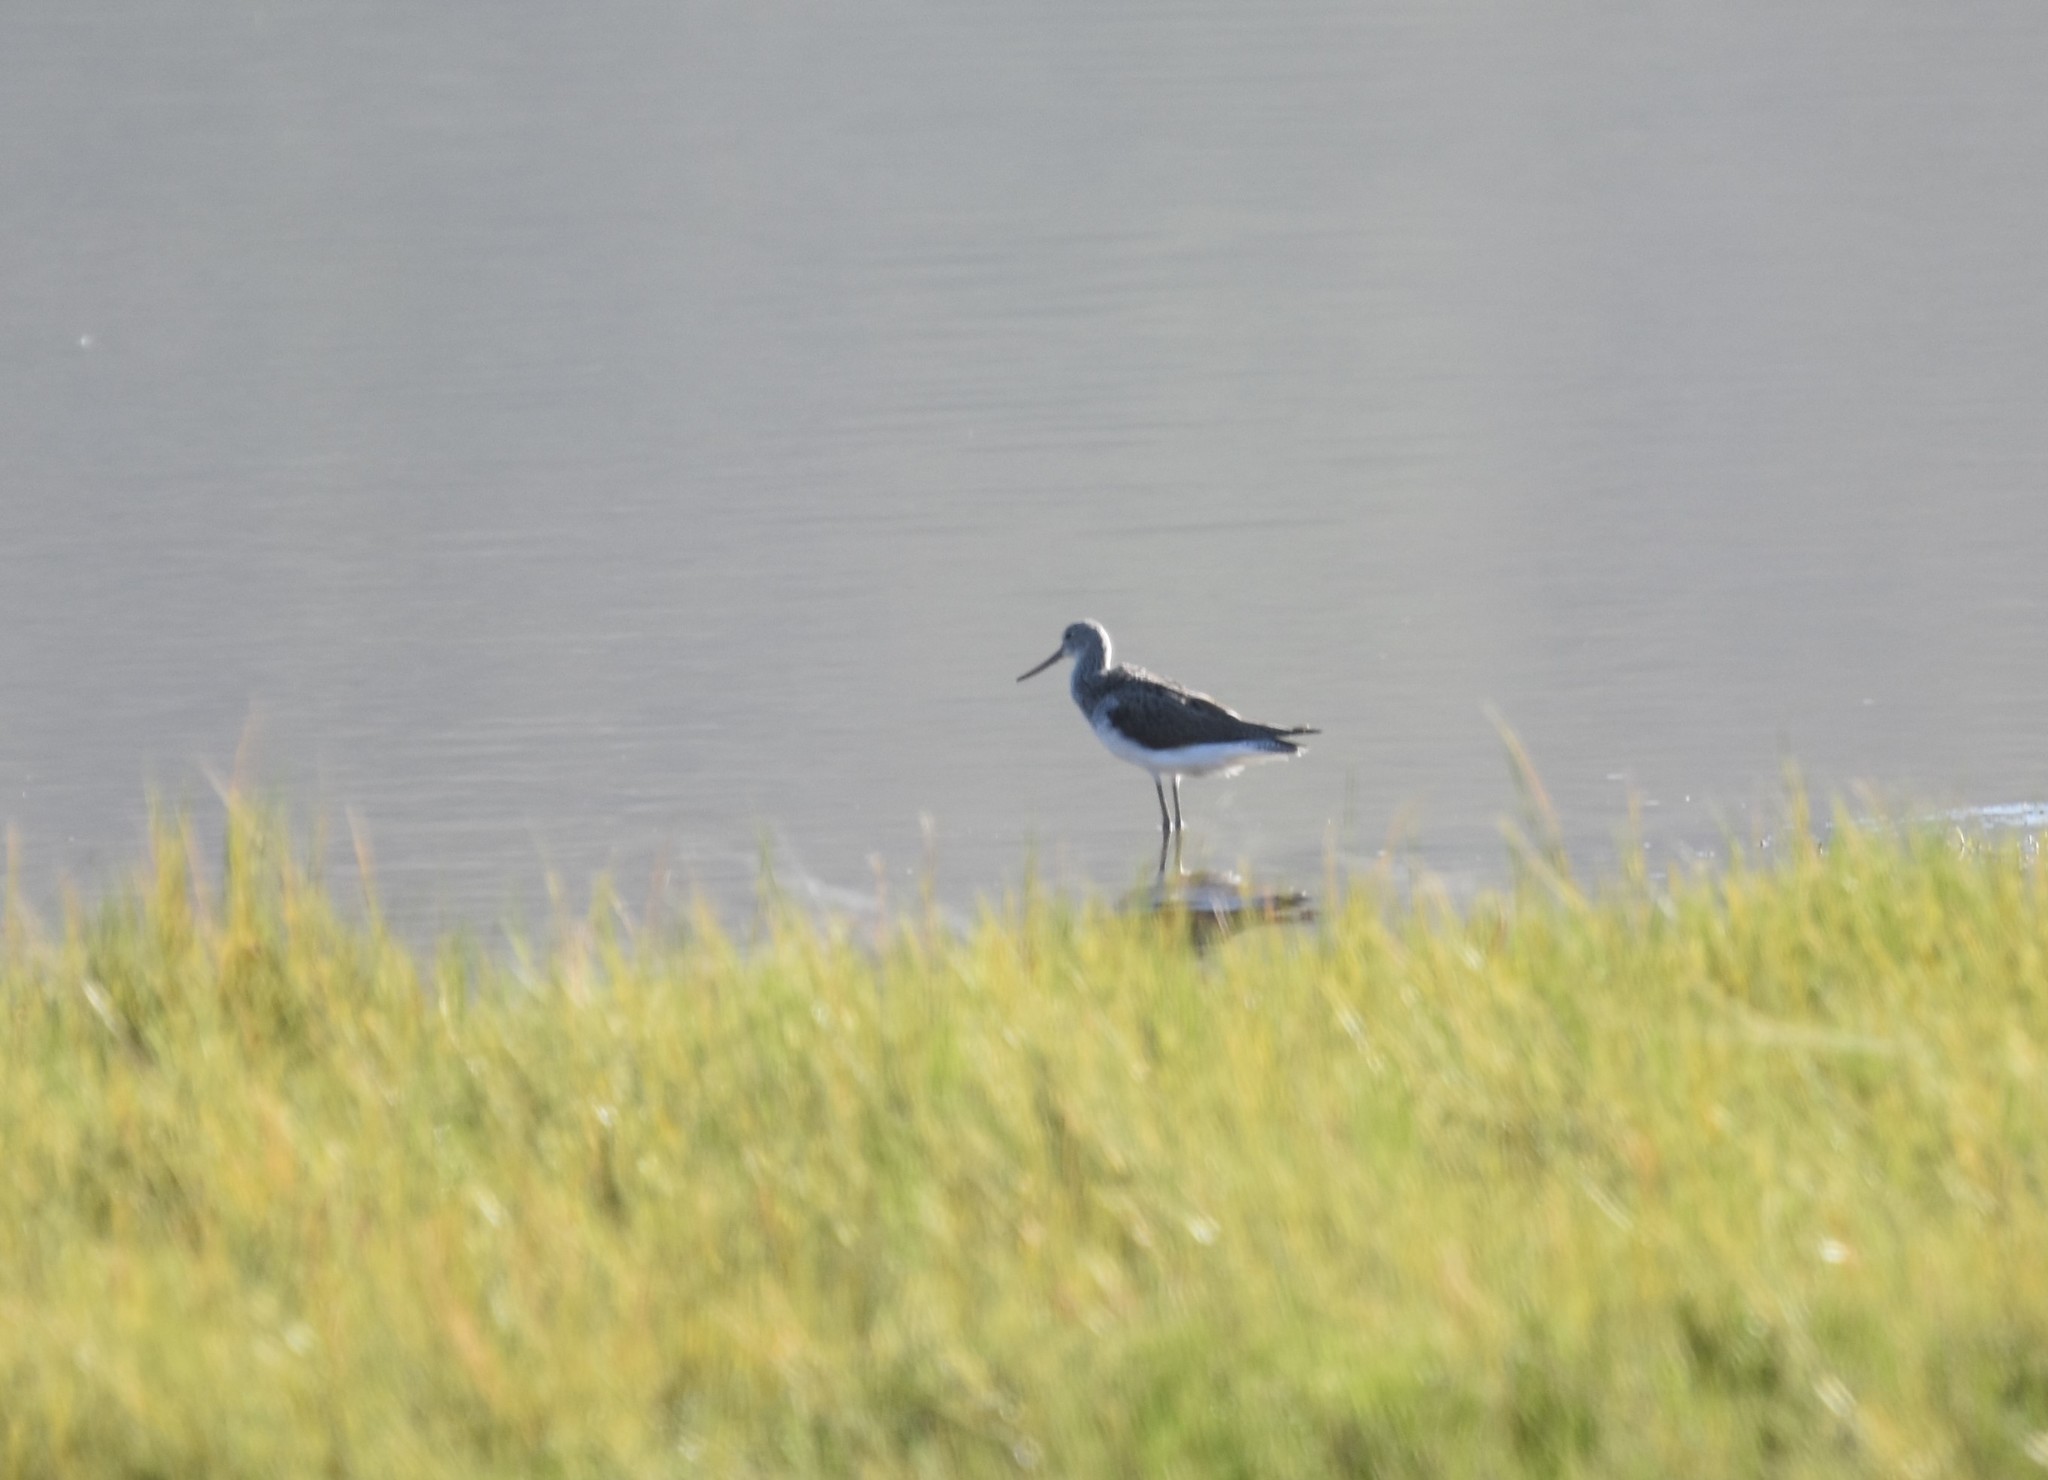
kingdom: Animalia
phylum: Chordata
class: Aves
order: Charadriiformes
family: Scolopacidae
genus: Tringa
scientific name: Tringa nebularia
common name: Common greenshank
